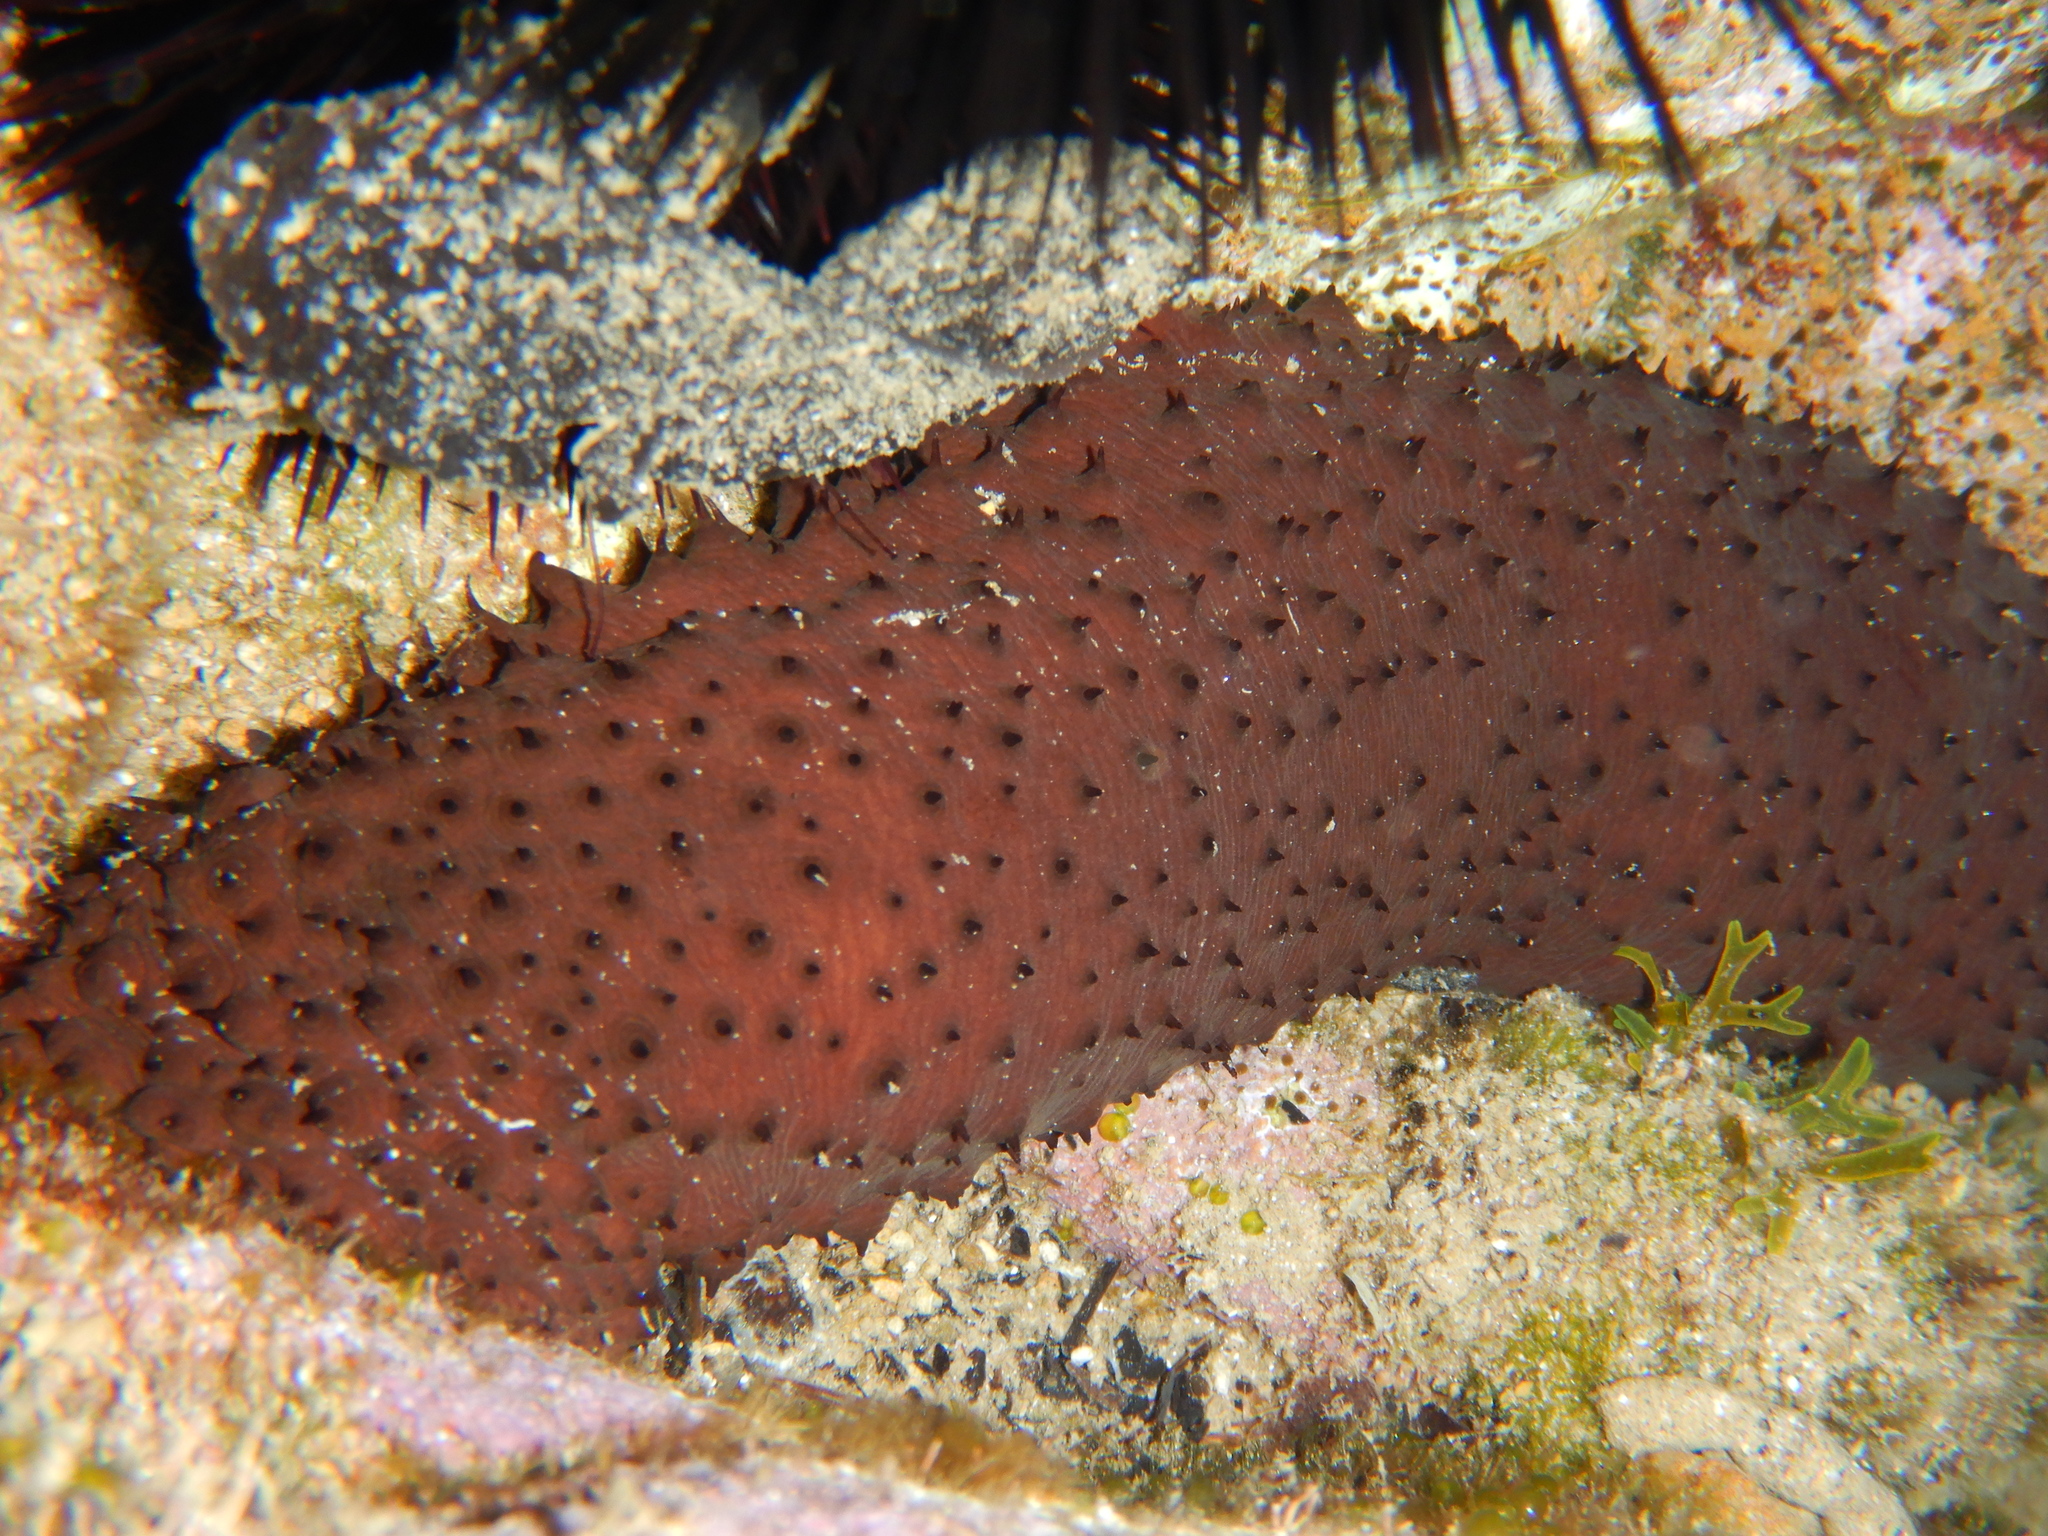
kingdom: Animalia
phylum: Echinodermata
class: Holothuroidea
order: Holothuriida
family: Holothuriidae
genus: Holothuria
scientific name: Holothuria sanctori
